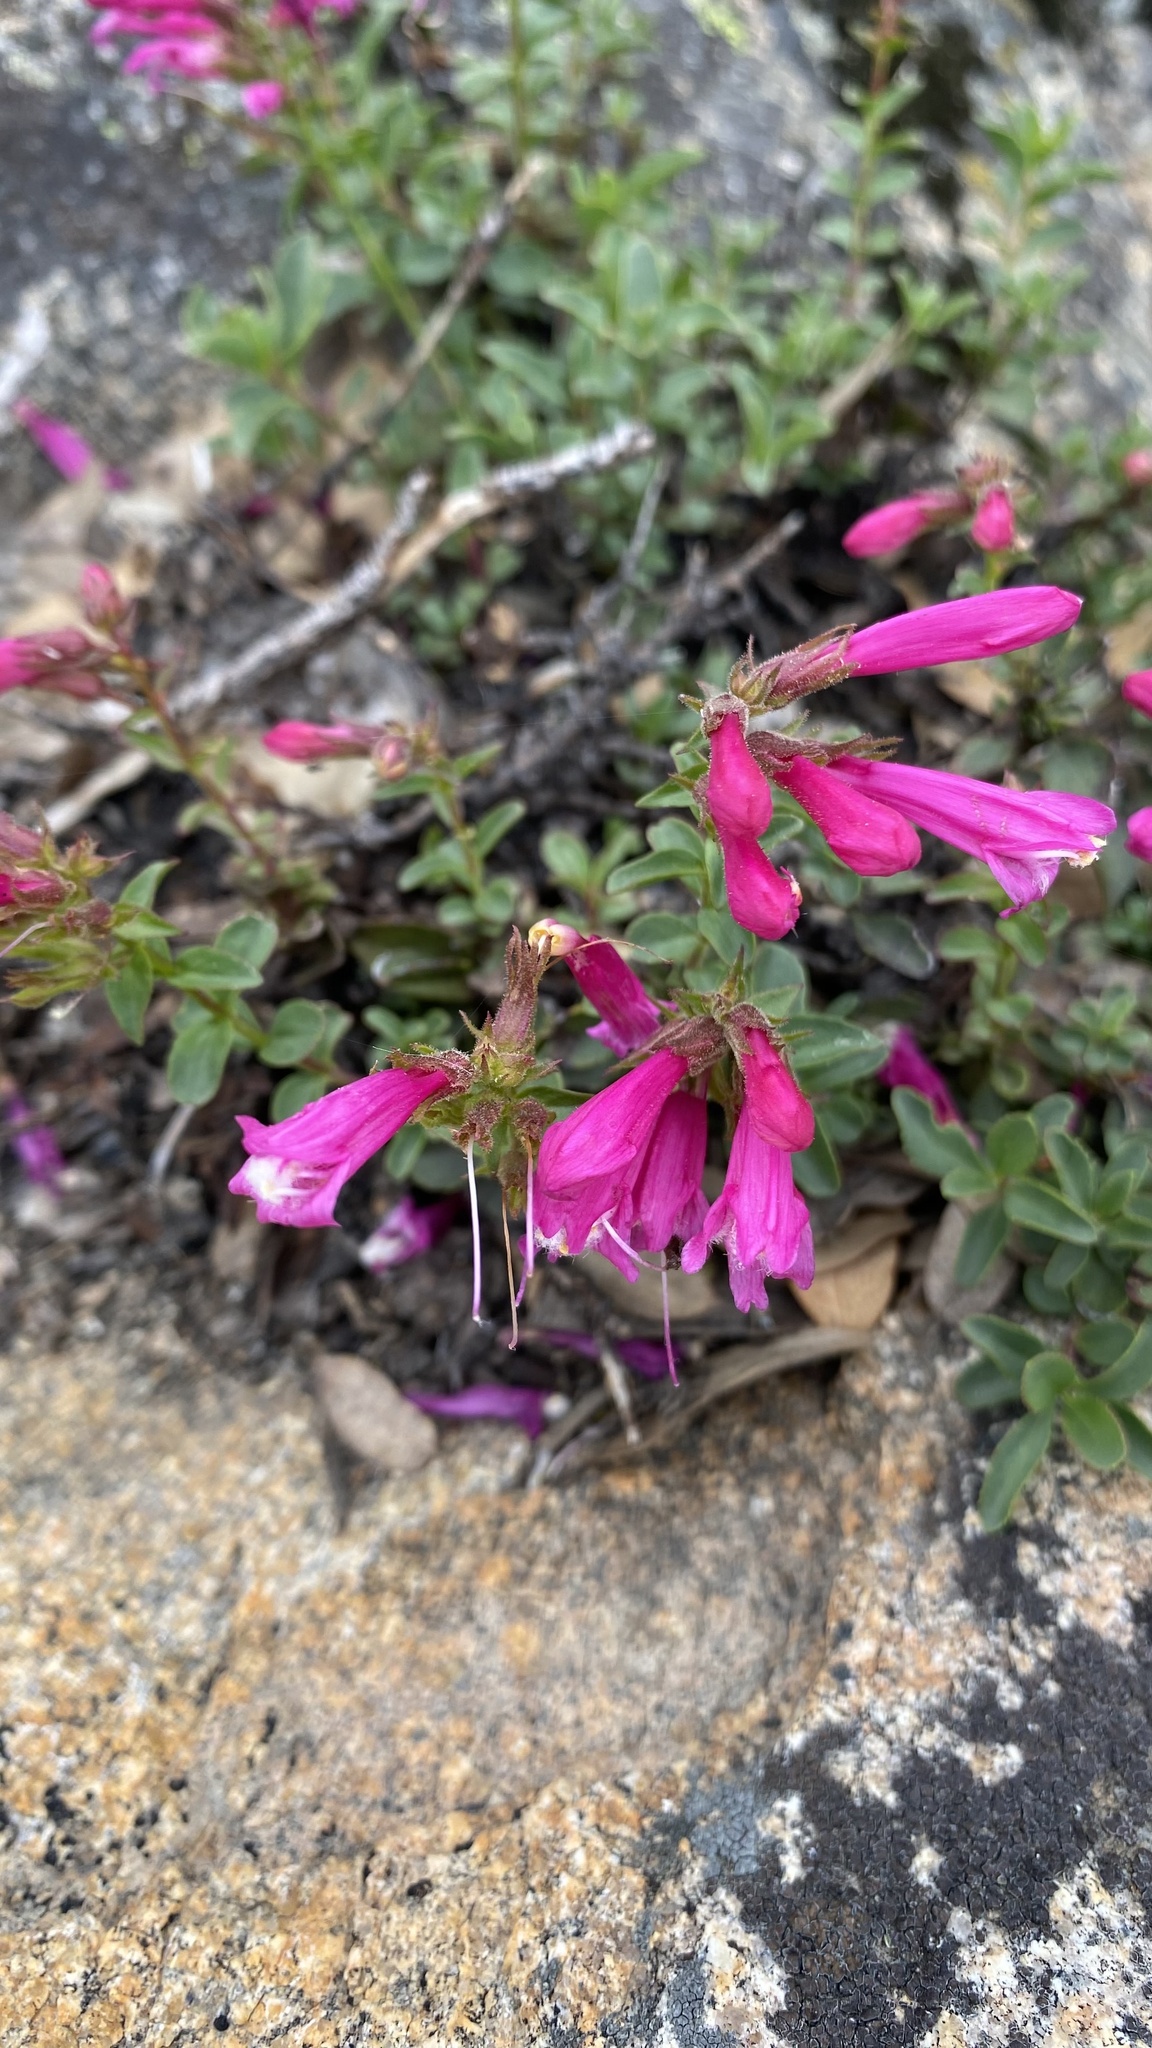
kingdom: Plantae
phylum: Tracheophyta
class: Magnoliopsida
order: Lamiales
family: Plantaginaceae
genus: Penstemon
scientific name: Penstemon newberryi
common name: Mountain-pride
